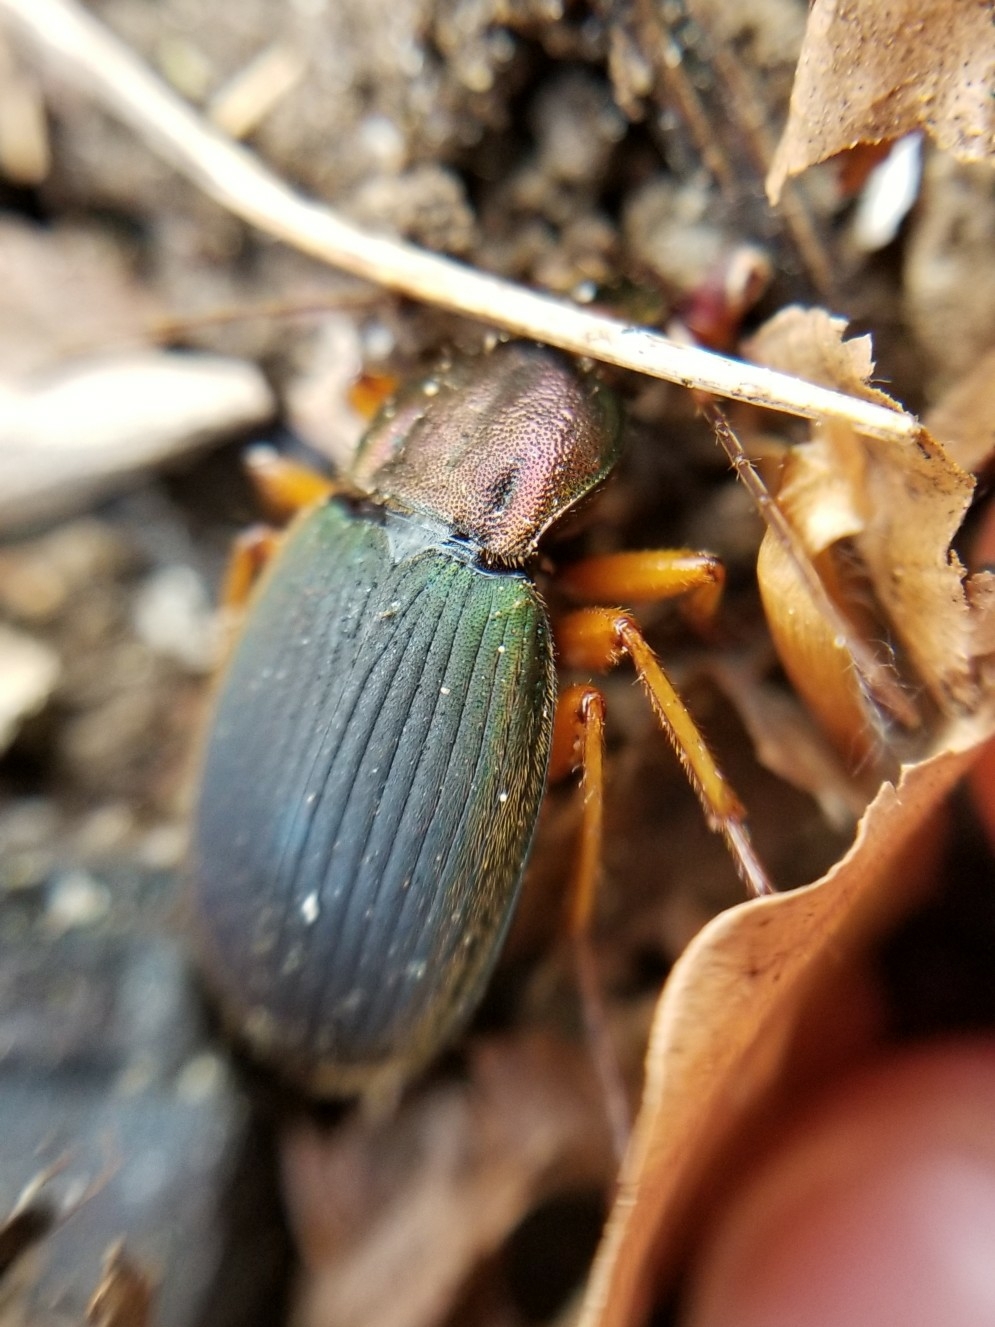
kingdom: Animalia
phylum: Arthropoda
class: Insecta
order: Coleoptera
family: Carabidae
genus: Chlaenius
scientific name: Chlaenius aestivus
